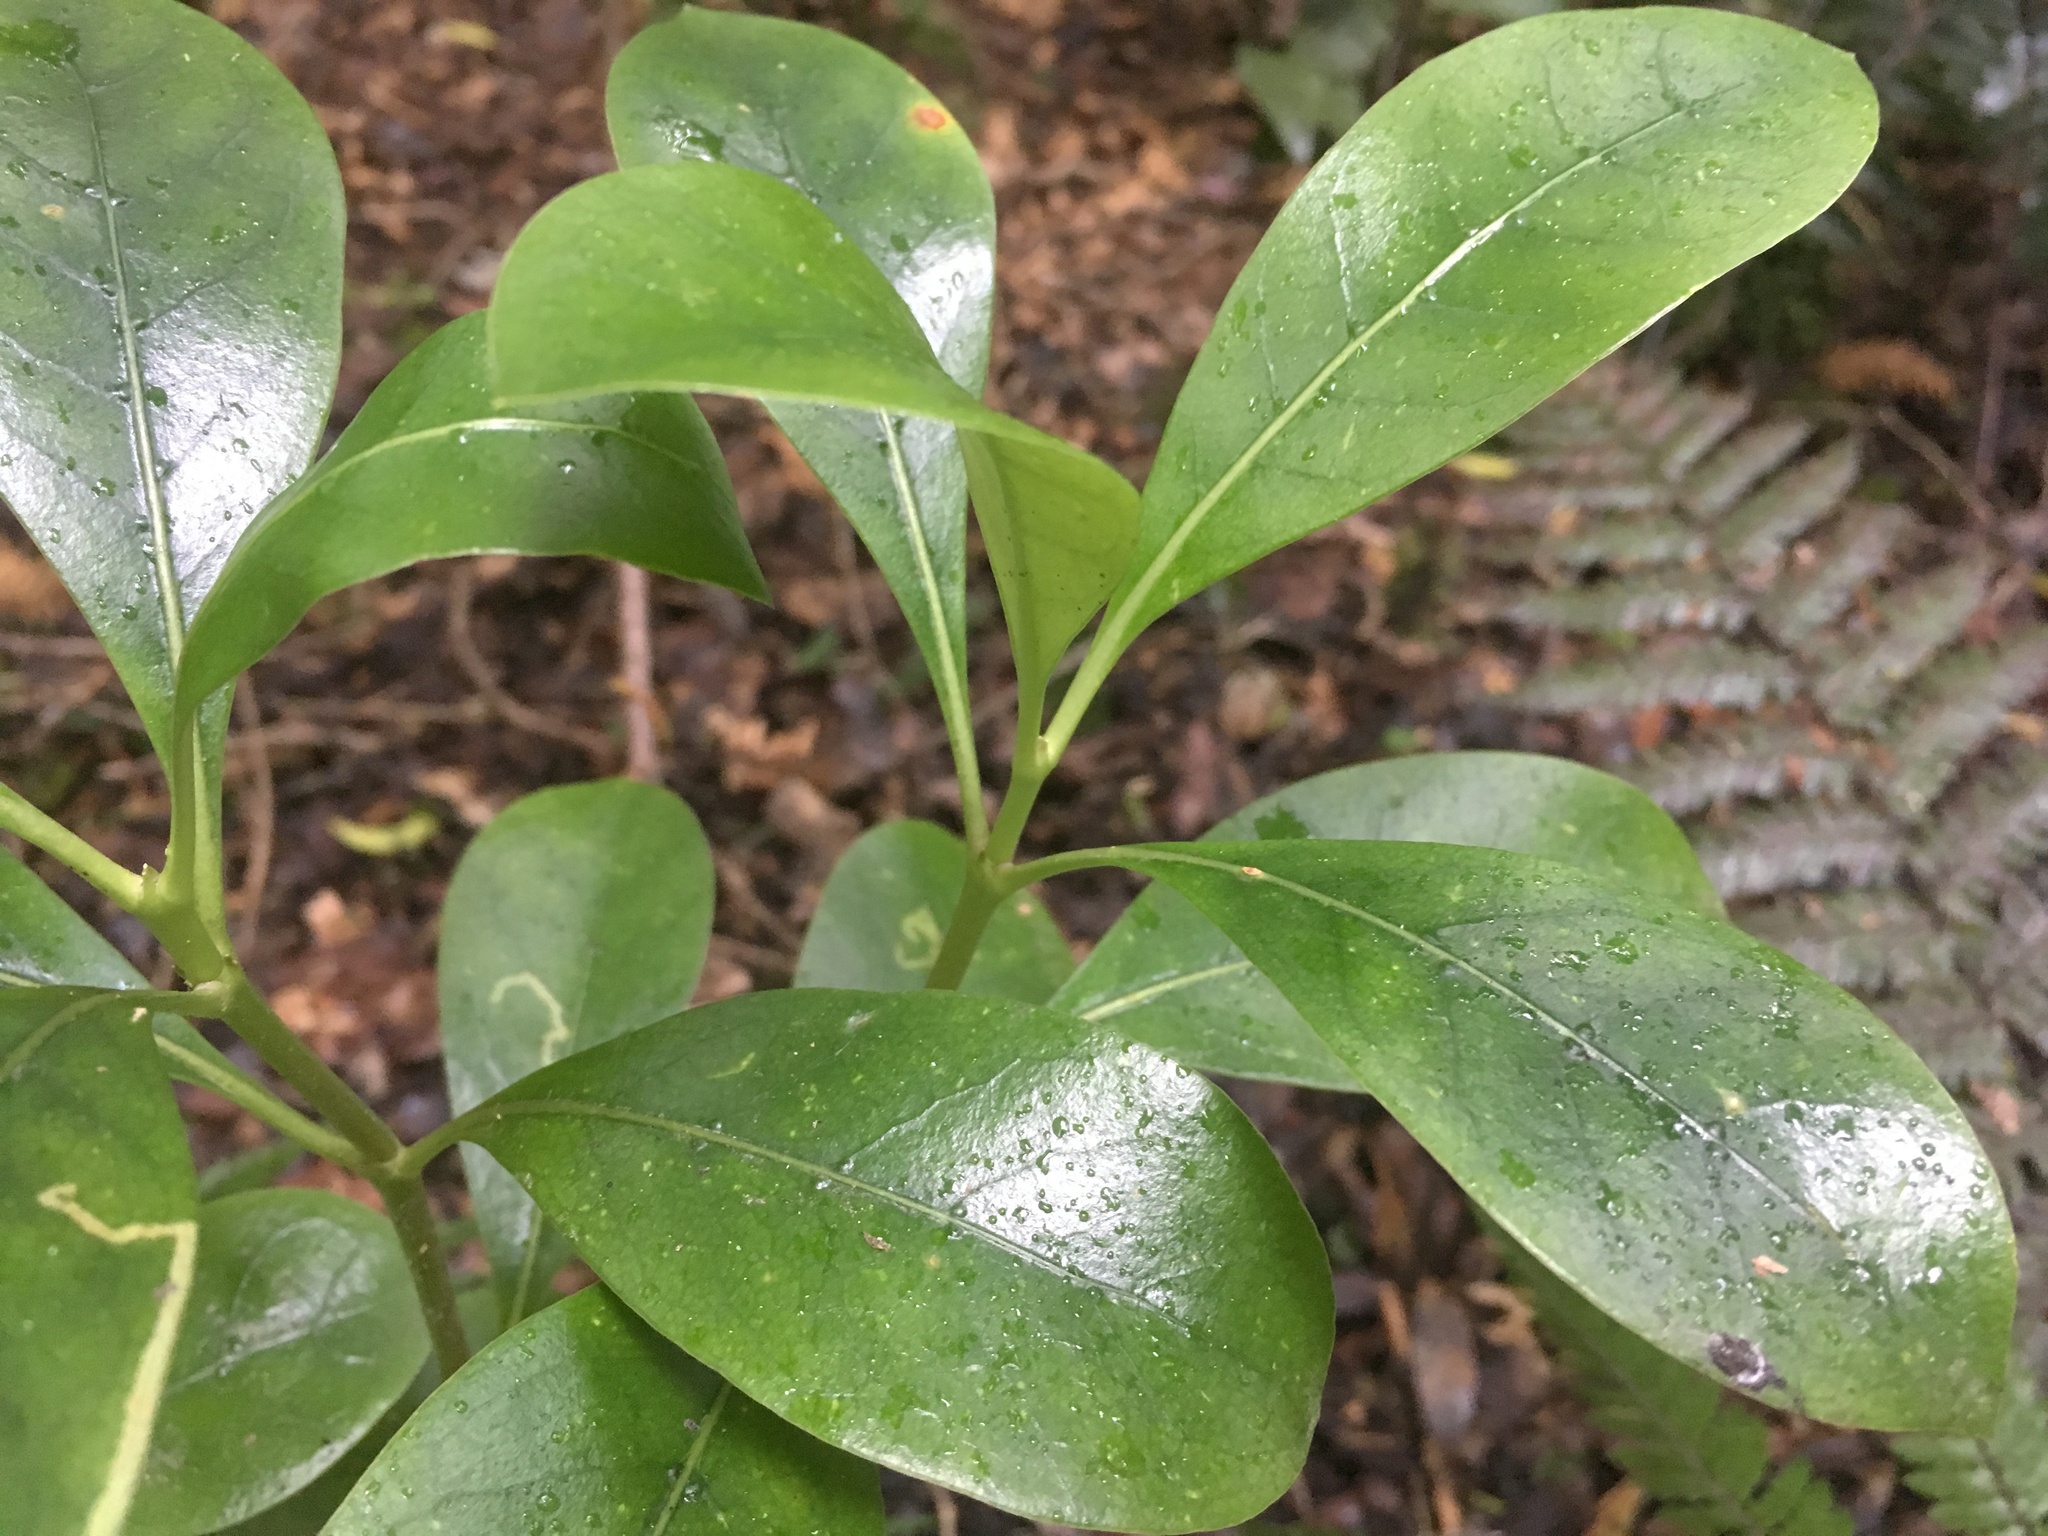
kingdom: Plantae
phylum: Tracheophyta
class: Magnoliopsida
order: Gentianales
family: Rubiaceae
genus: Coprosma
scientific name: Coprosma lucida
